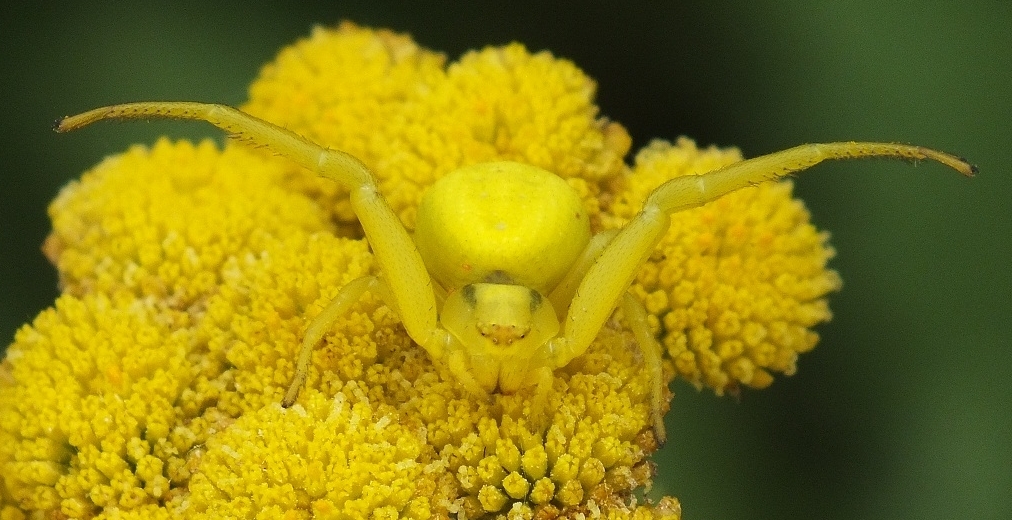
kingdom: Animalia
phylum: Arthropoda
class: Arachnida
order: Araneae
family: Thomisidae
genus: Misumena
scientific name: Misumena vatia
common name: Goldenrod crab spider
